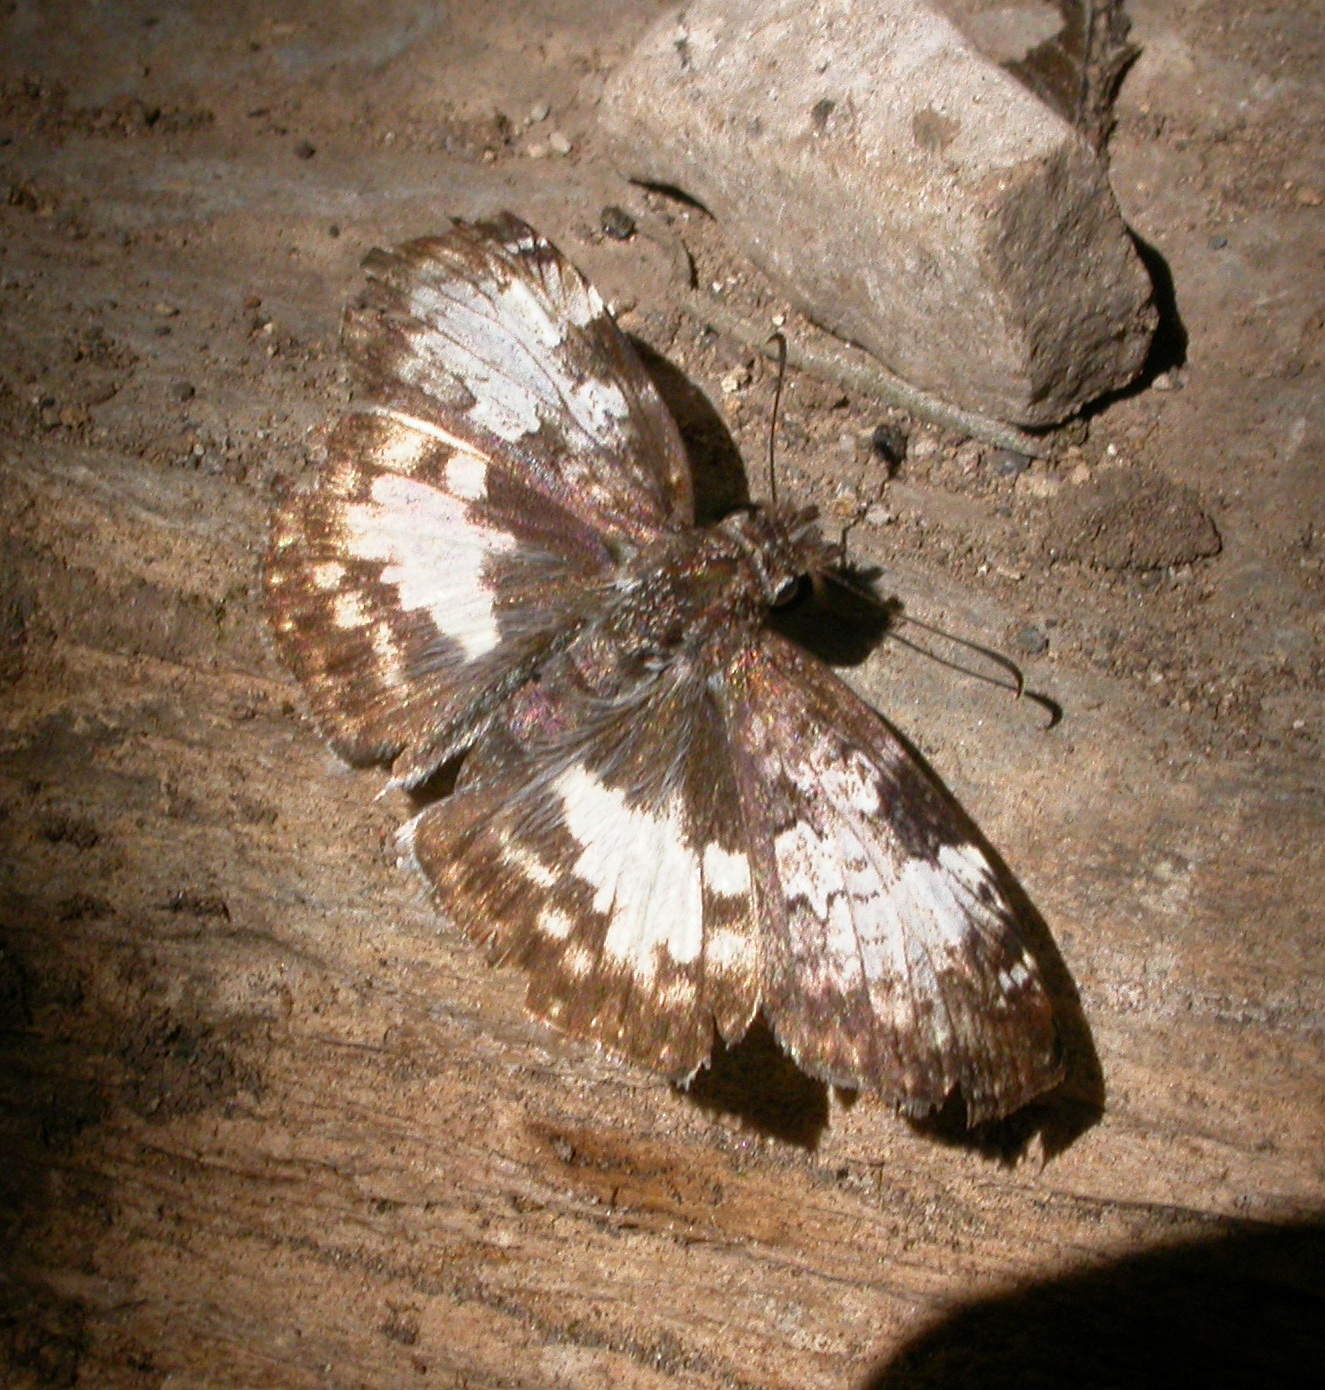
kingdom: Animalia
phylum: Arthropoda
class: Insecta
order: Lepidoptera
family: Hesperiidae
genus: Chiothion
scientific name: Chiothion georgina
